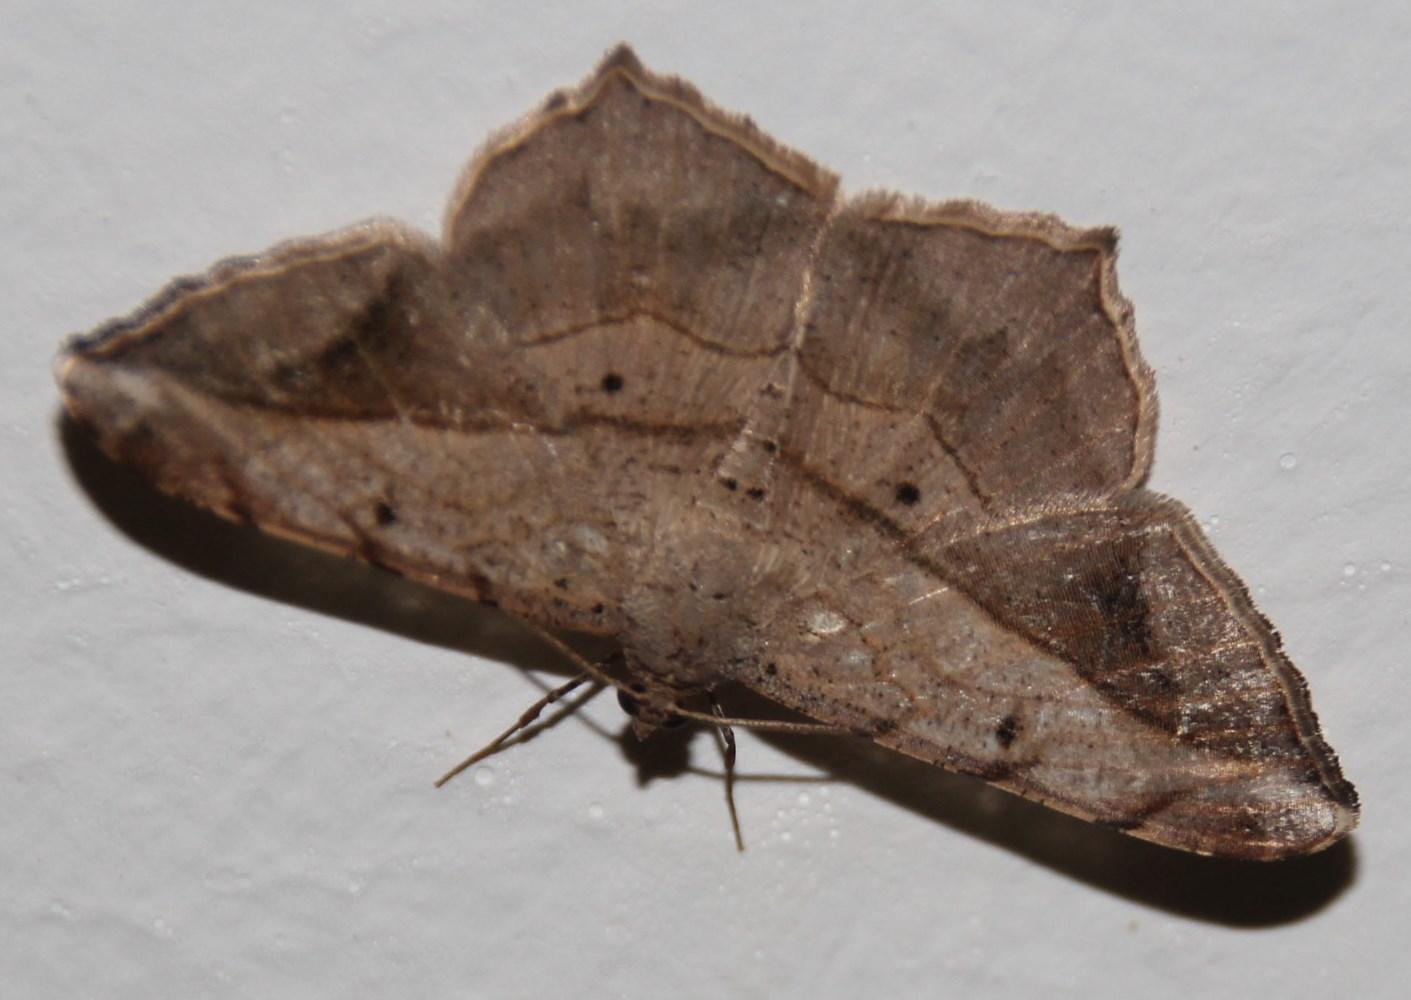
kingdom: Animalia
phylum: Arthropoda
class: Insecta
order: Lepidoptera
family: Geometridae
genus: Chiasmia
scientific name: Chiasmia simplicilinea
